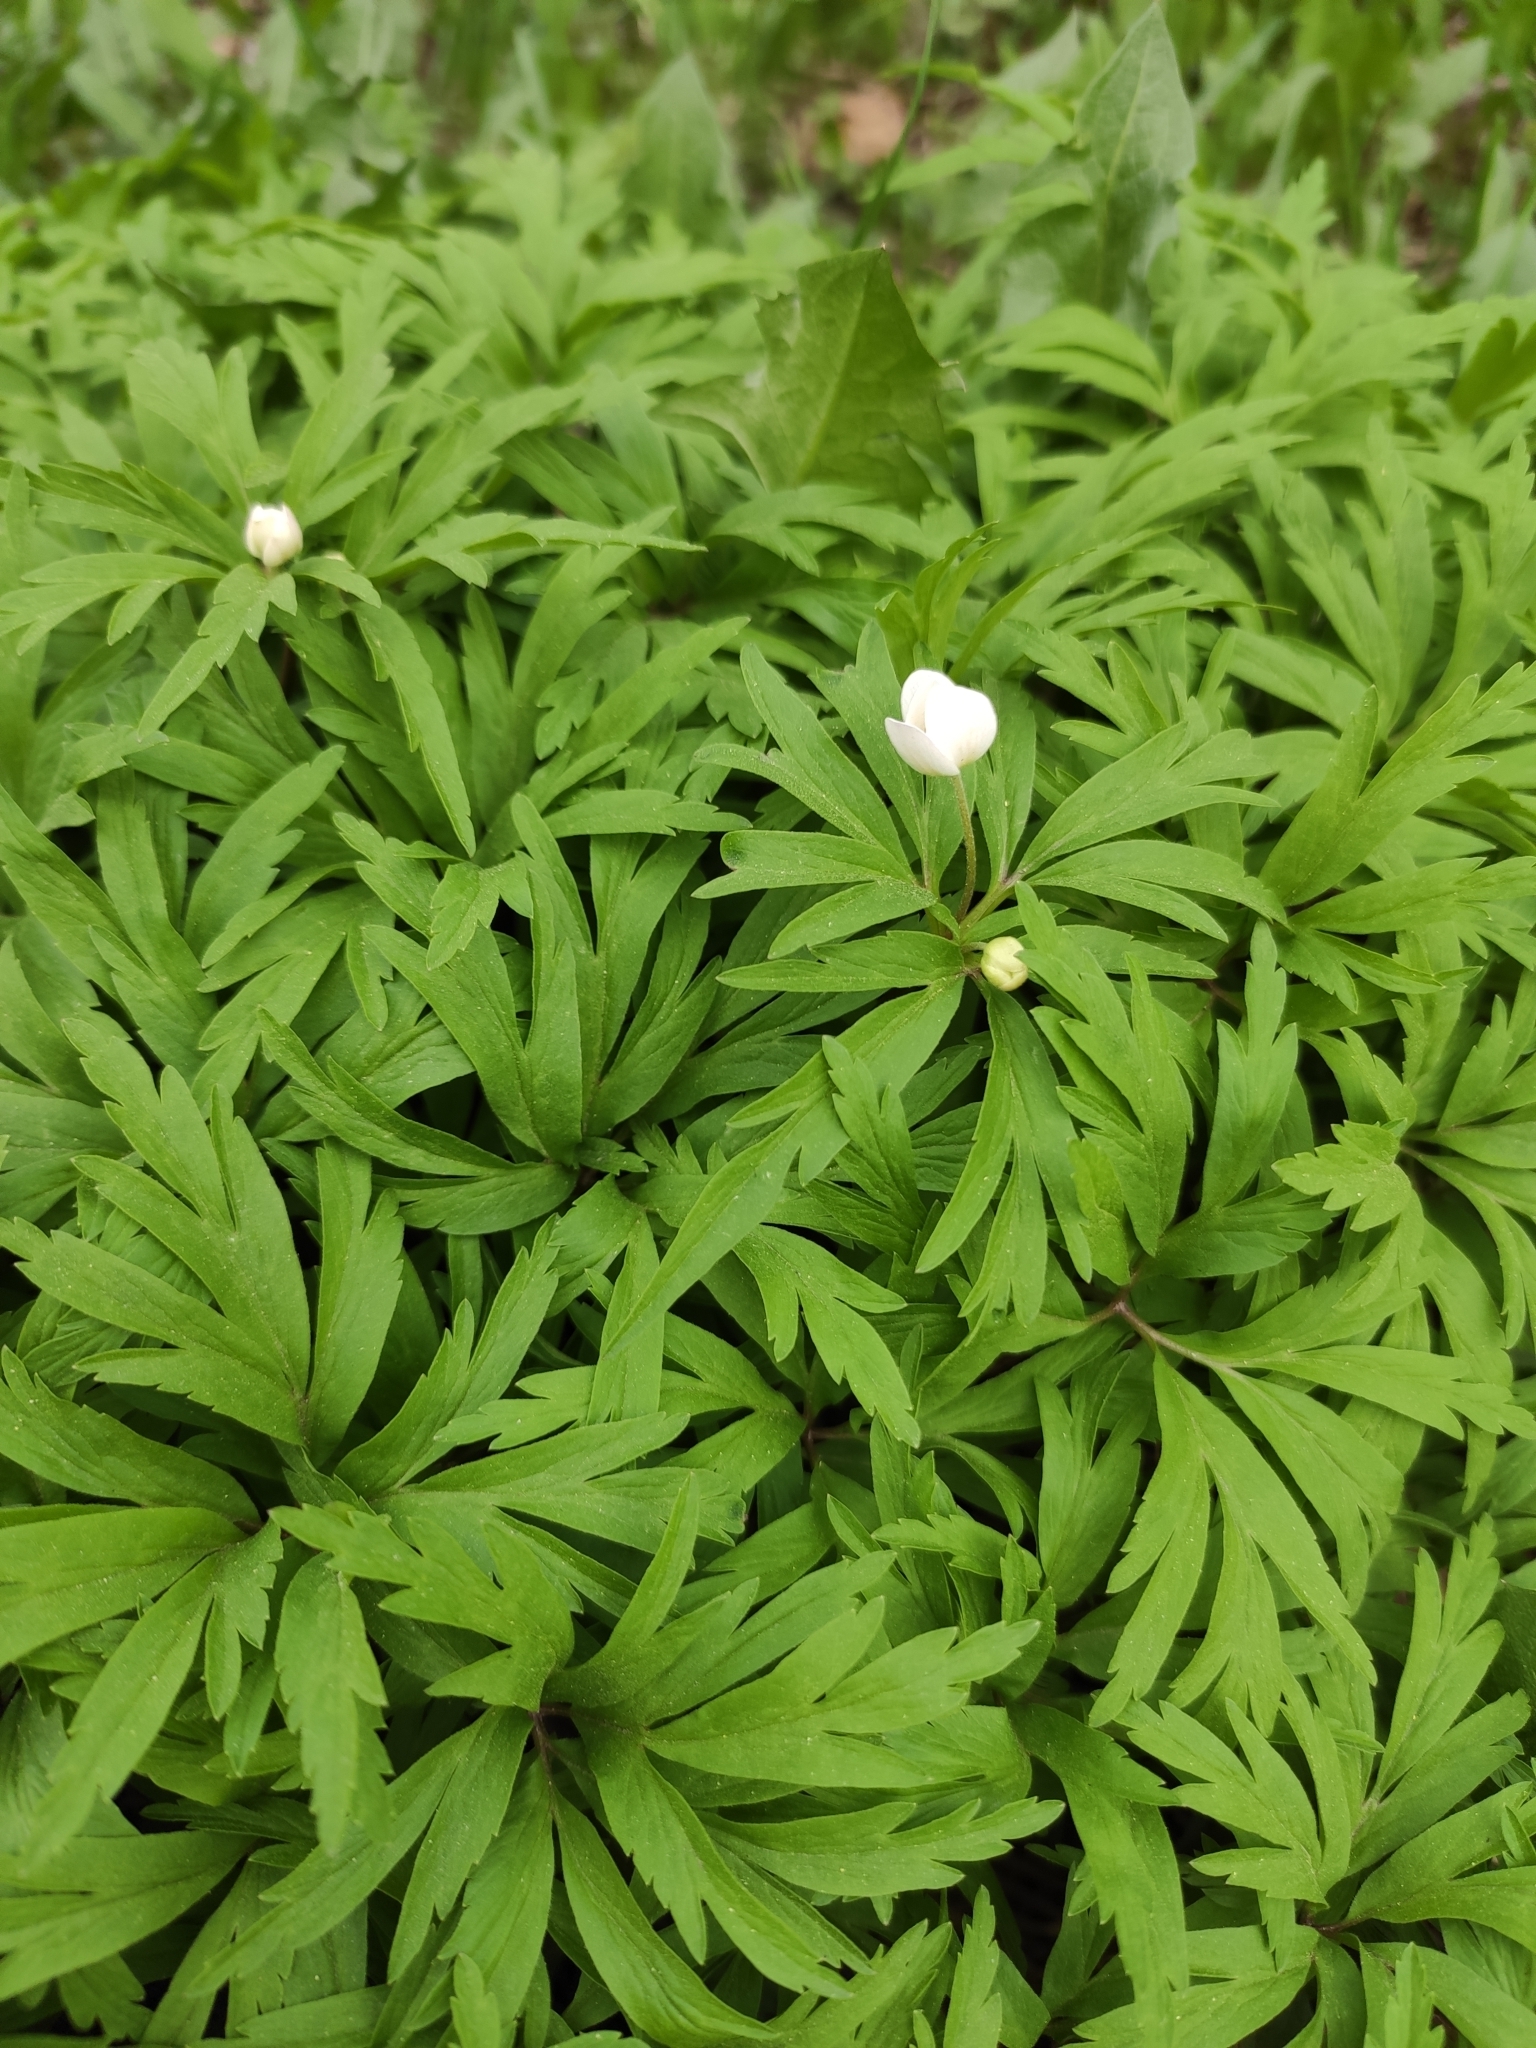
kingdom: Plantae
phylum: Tracheophyta
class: Magnoliopsida
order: Ranunculales
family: Ranunculaceae
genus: Anemone
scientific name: Anemone caerulea
